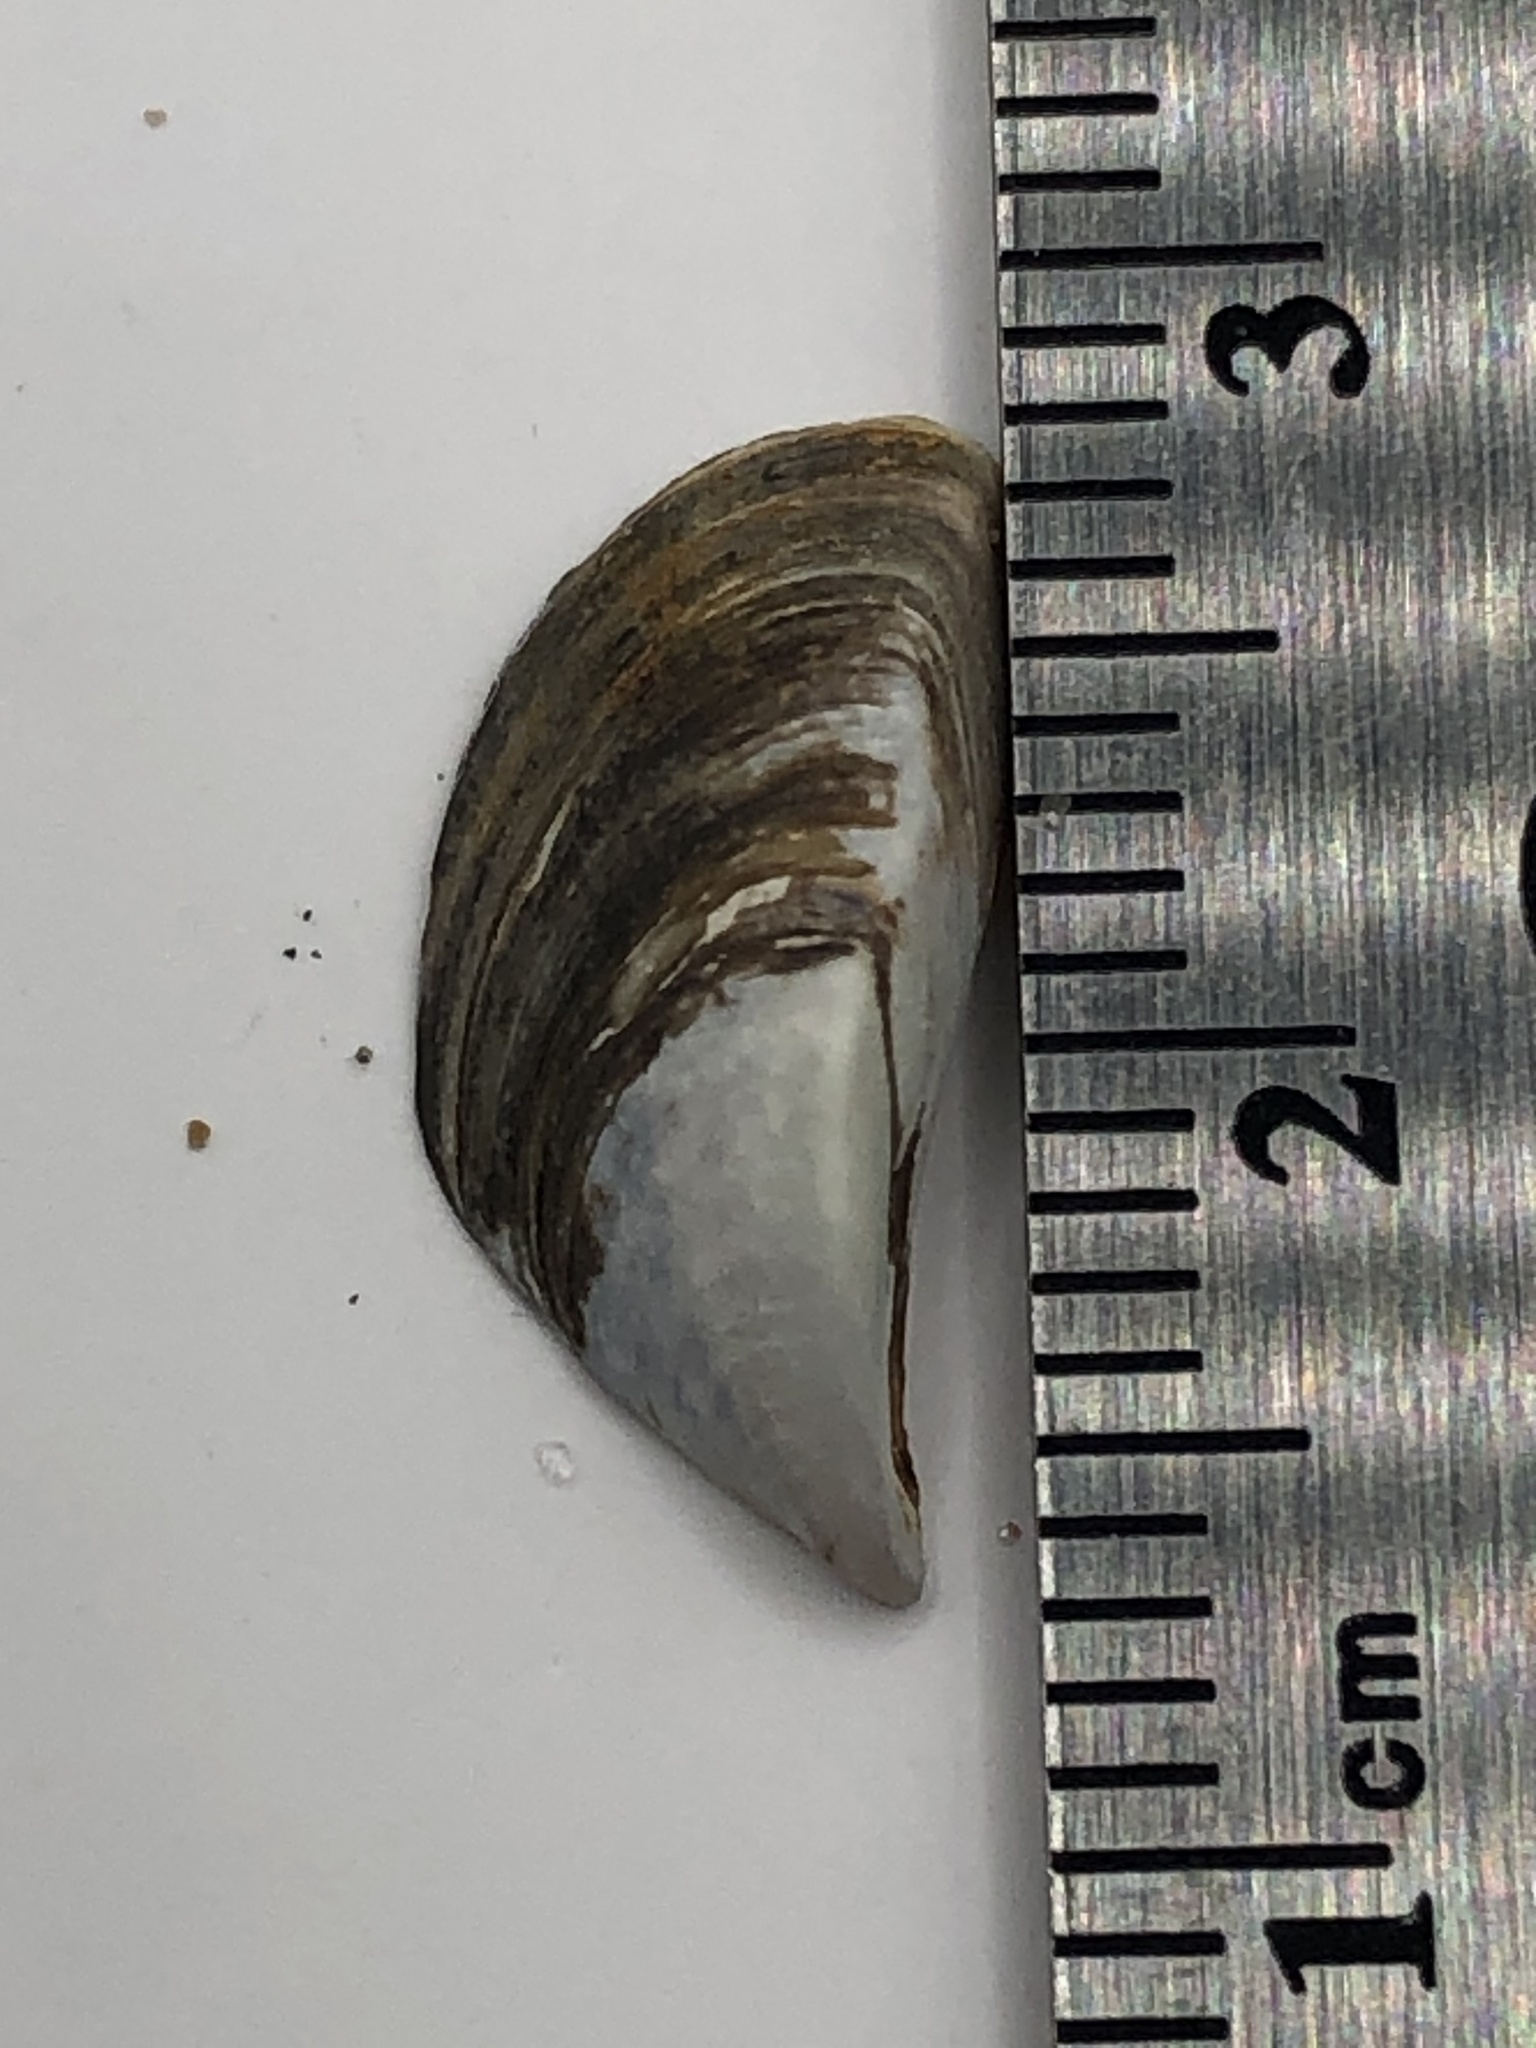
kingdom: Animalia
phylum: Mollusca
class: Bivalvia
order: Myida
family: Dreissenidae
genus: Dreissena
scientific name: Dreissena polymorpha
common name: Zebra mussel
